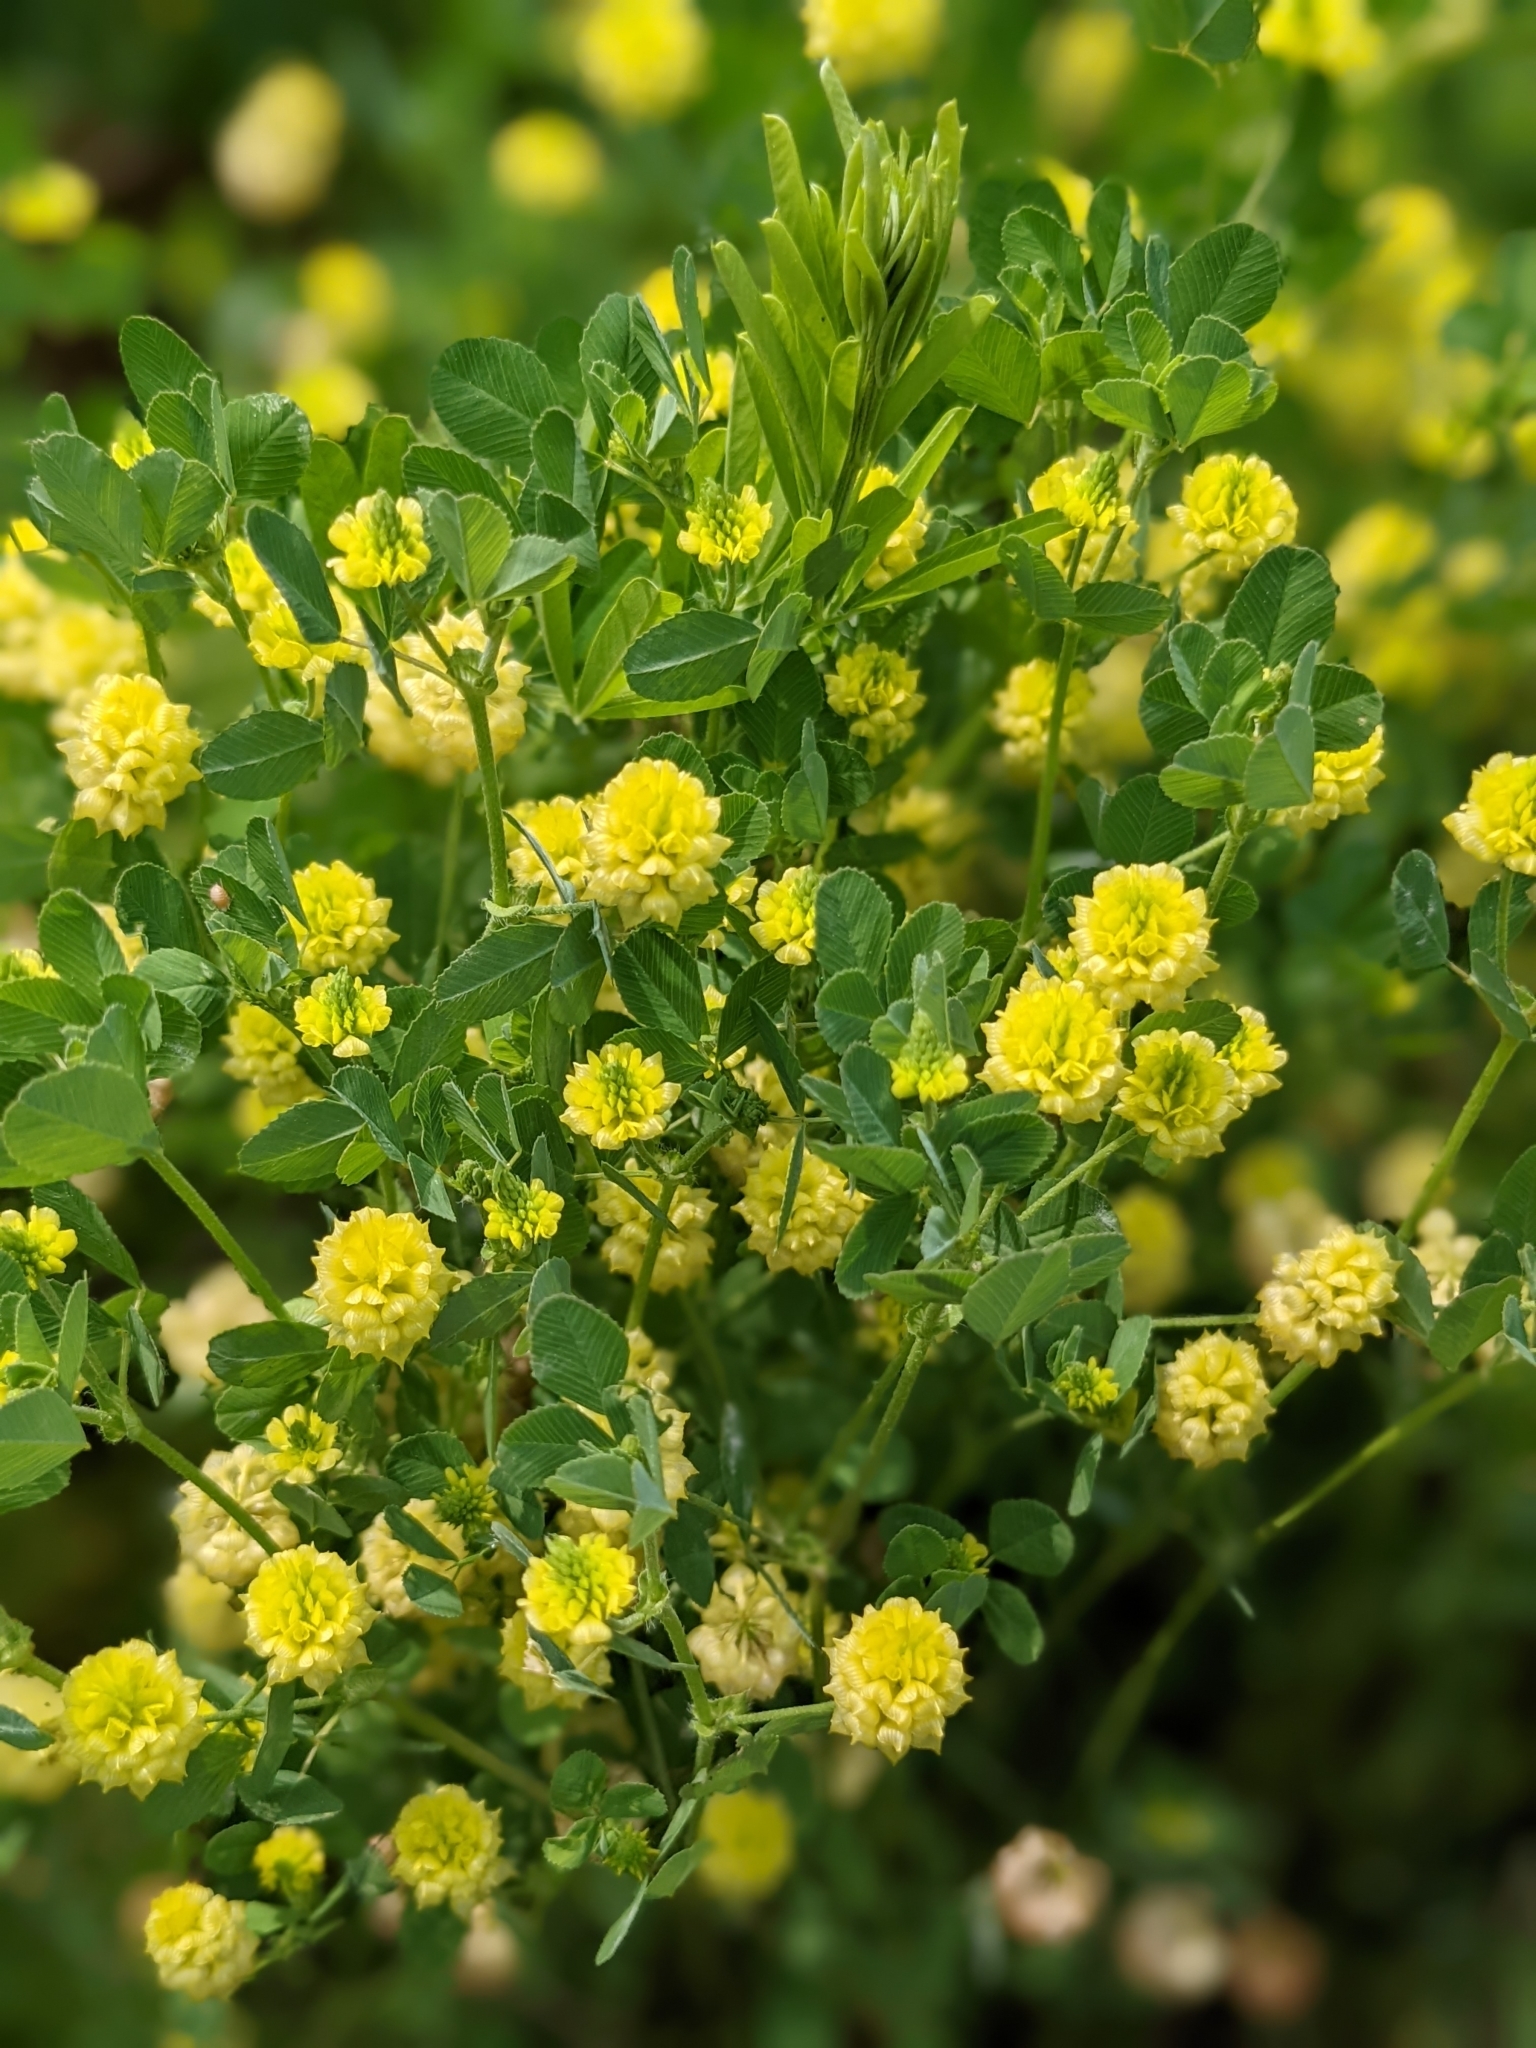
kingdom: Plantae
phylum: Tracheophyta
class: Magnoliopsida
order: Fabales
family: Fabaceae
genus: Trifolium
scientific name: Trifolium campestre
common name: Field clover
